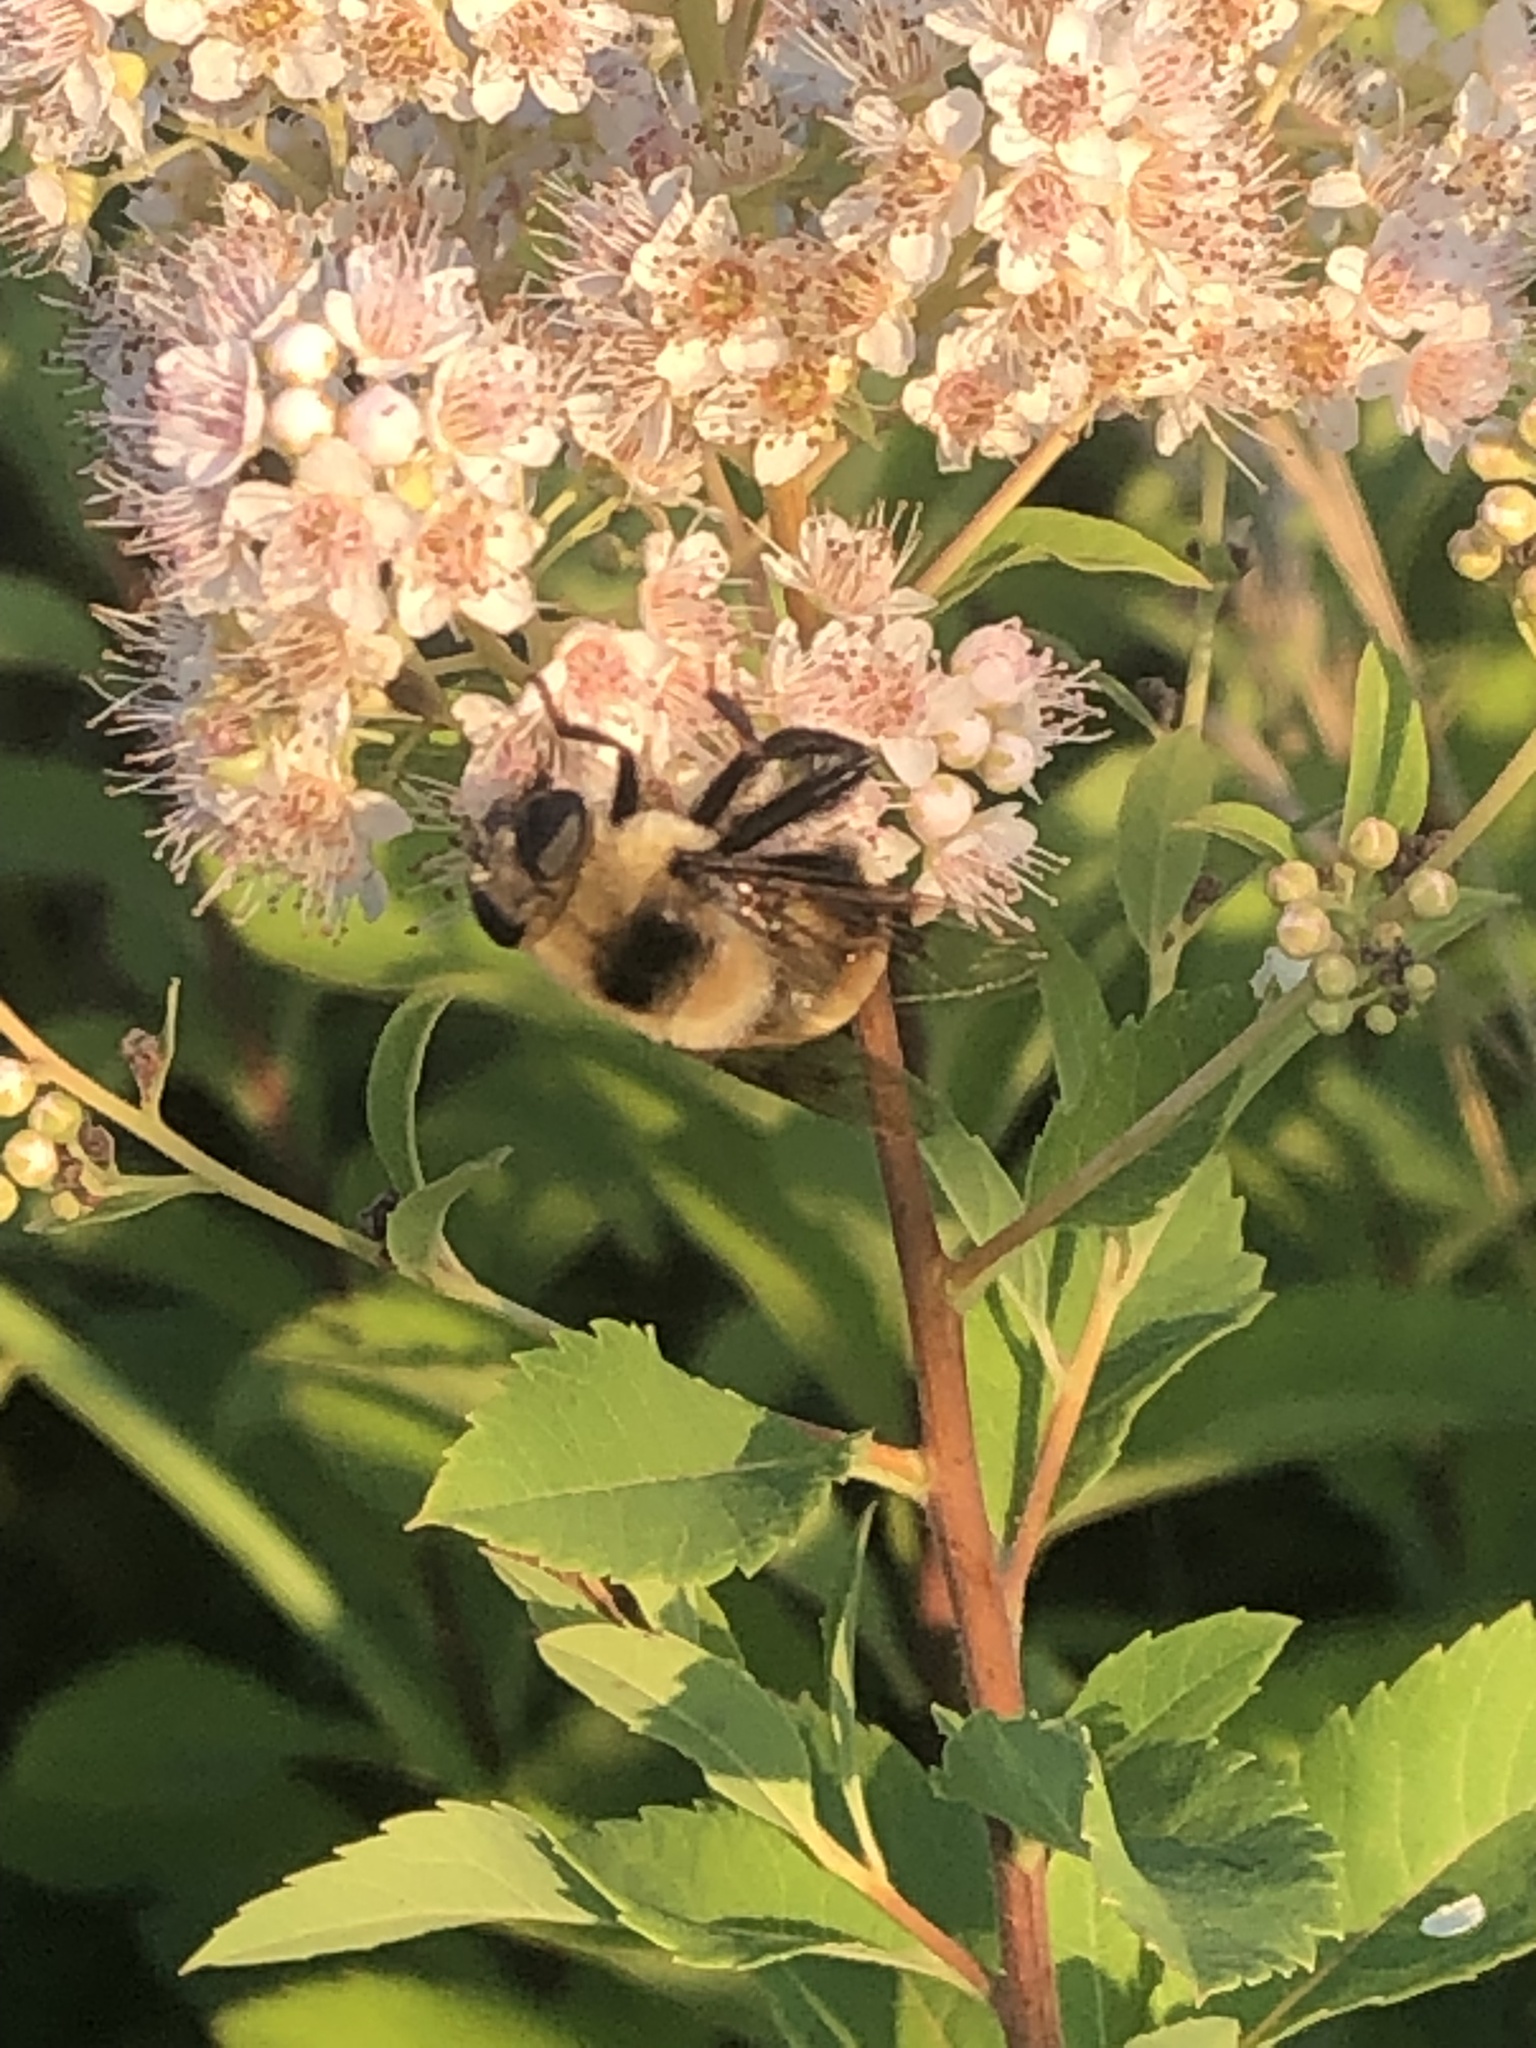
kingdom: Animalia
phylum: Arthropoda
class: Insecta
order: Diptera
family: Syrphidae
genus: Eristalis
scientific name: Eristalis flavipes
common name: Orange-legged drone fly
